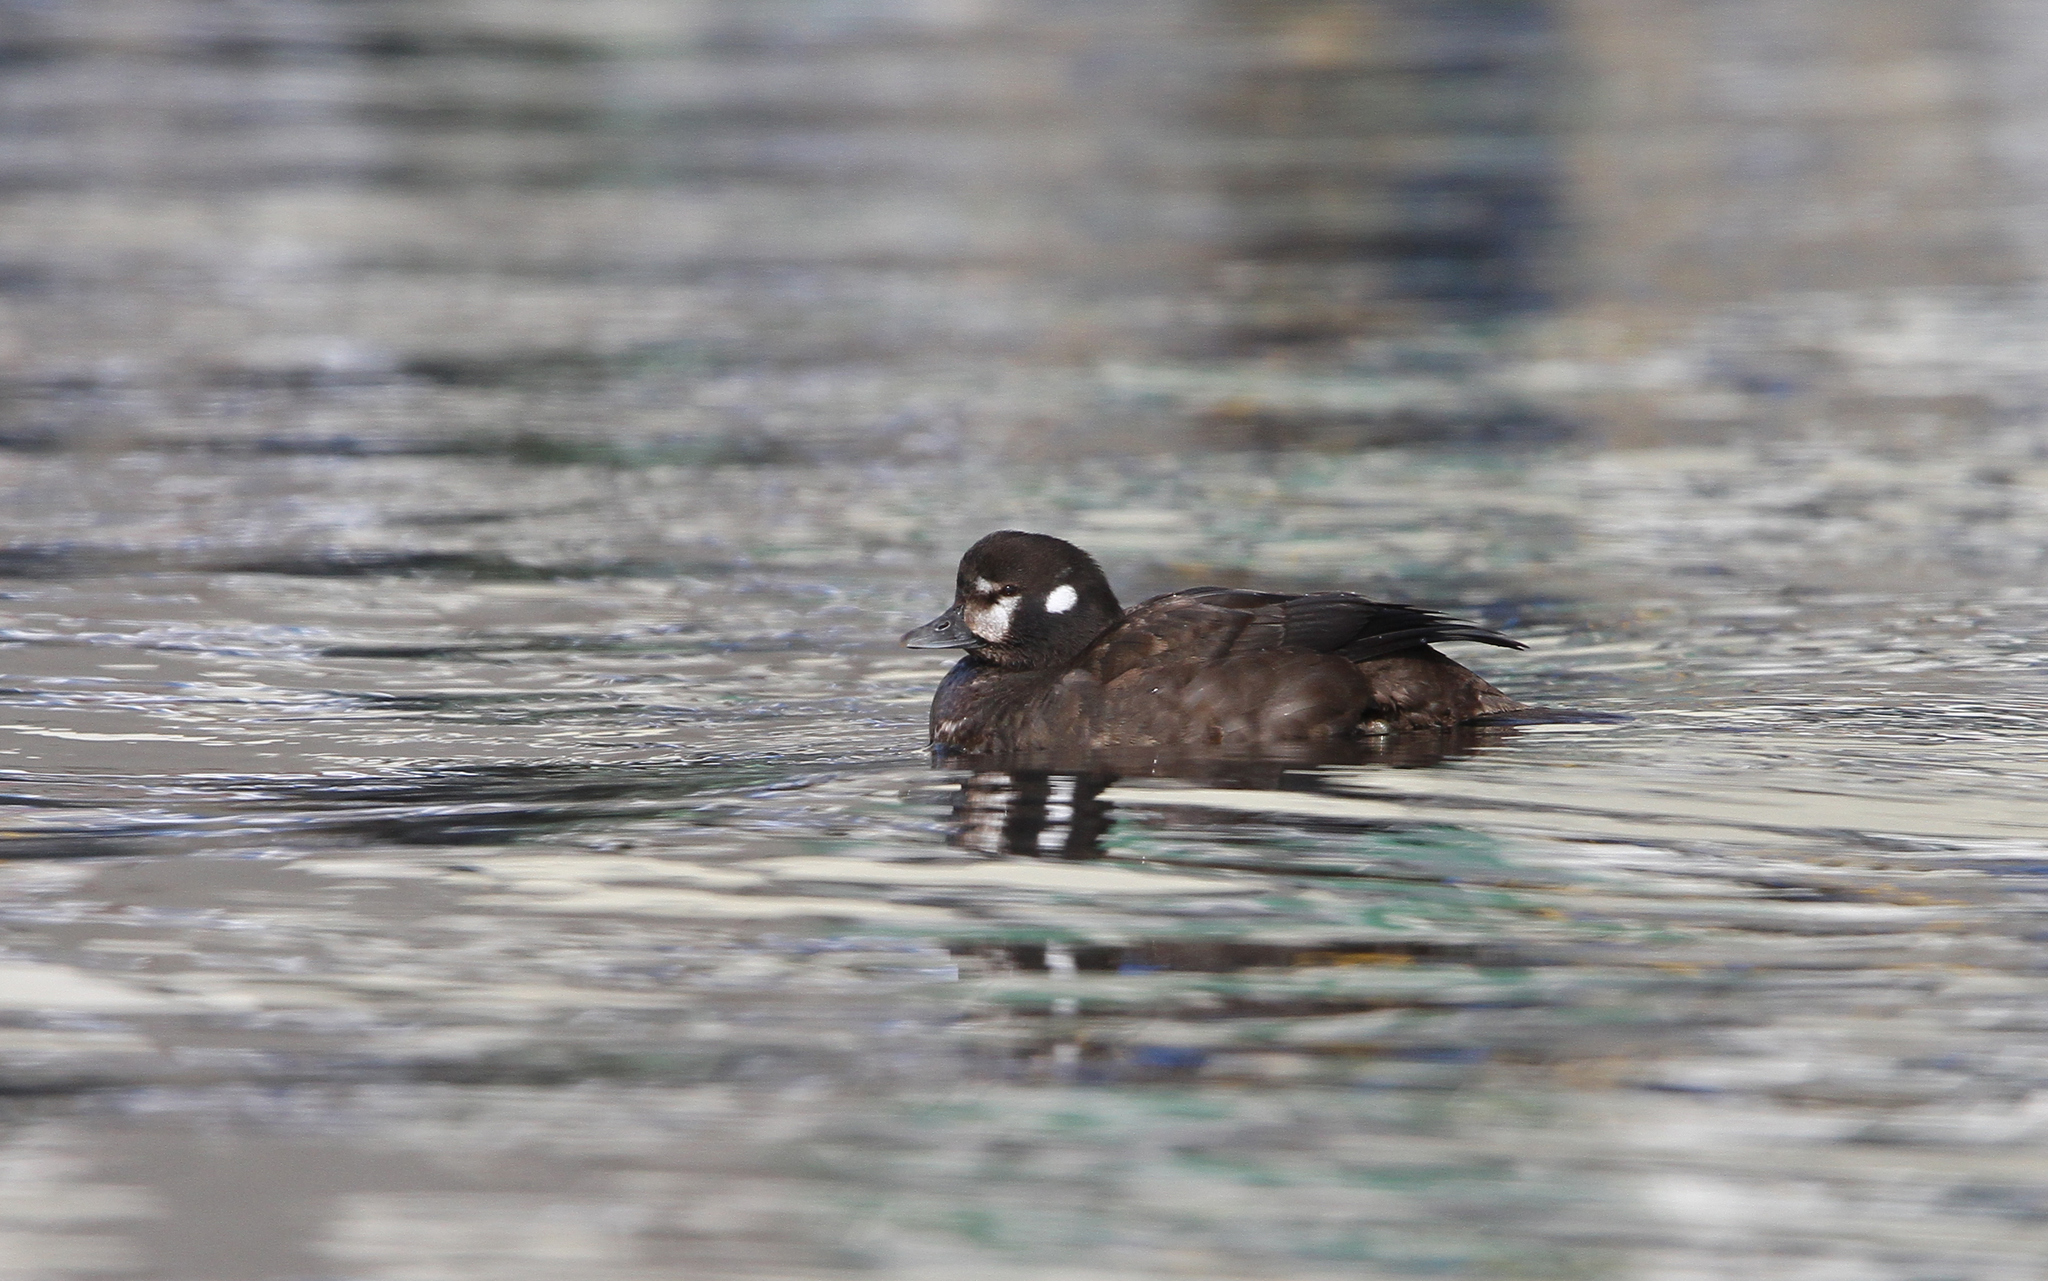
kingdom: Animalia
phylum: Chordata
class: Aves
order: Anseriformes
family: Anatidae
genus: Histrionicus
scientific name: Histrionicus histrionicus
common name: Harlequin duck
